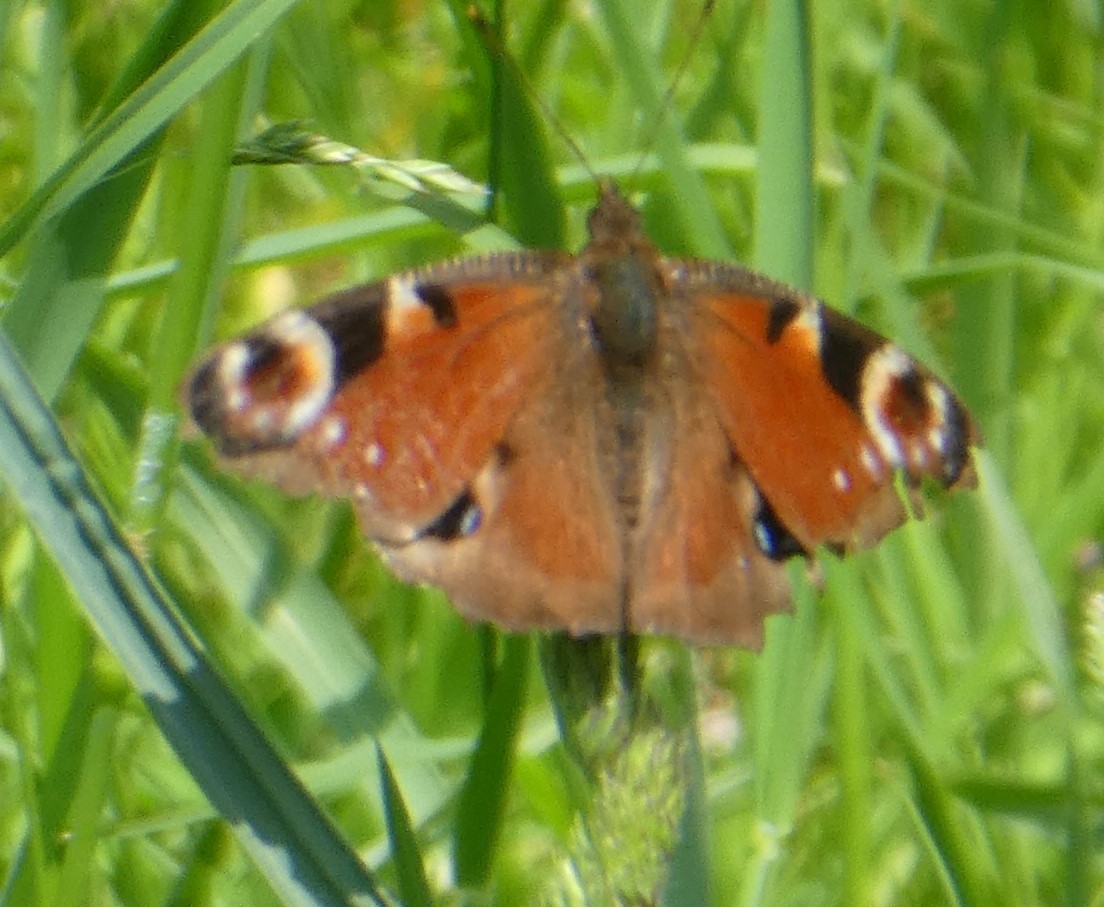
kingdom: Animalia
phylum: Arthropoda
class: Insecta
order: Lepidoptera
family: Nymphalidae
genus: Aglais
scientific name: Aglais io
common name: Peacock
